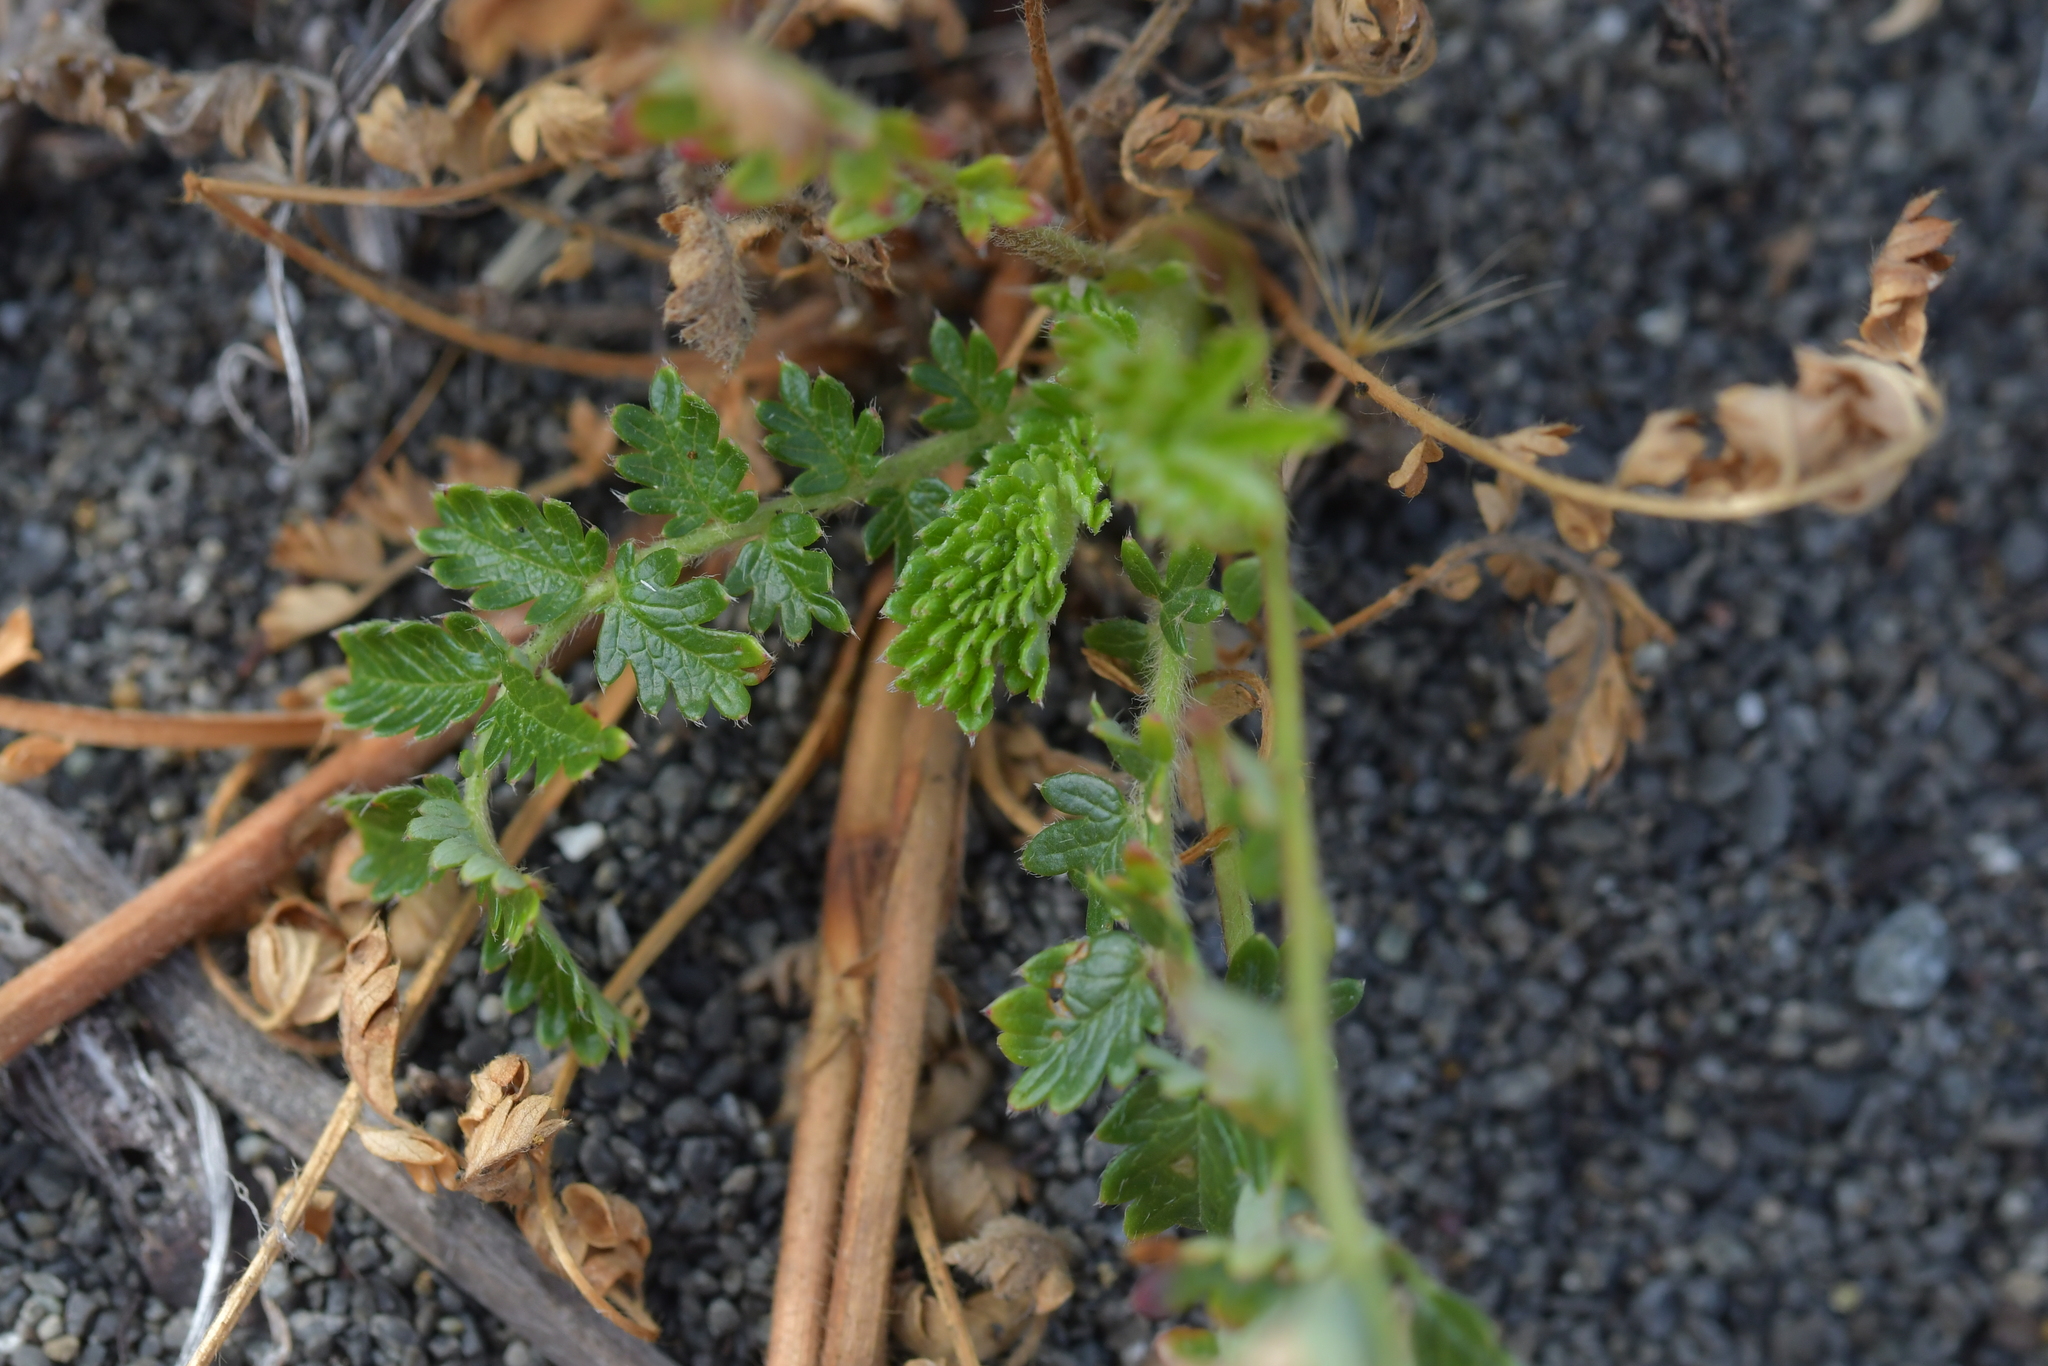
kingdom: Plantae
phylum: Tracheophyta
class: Magnoliopsida
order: Rosales
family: Rosaceae
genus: Acaena
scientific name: Acaena agnipila
